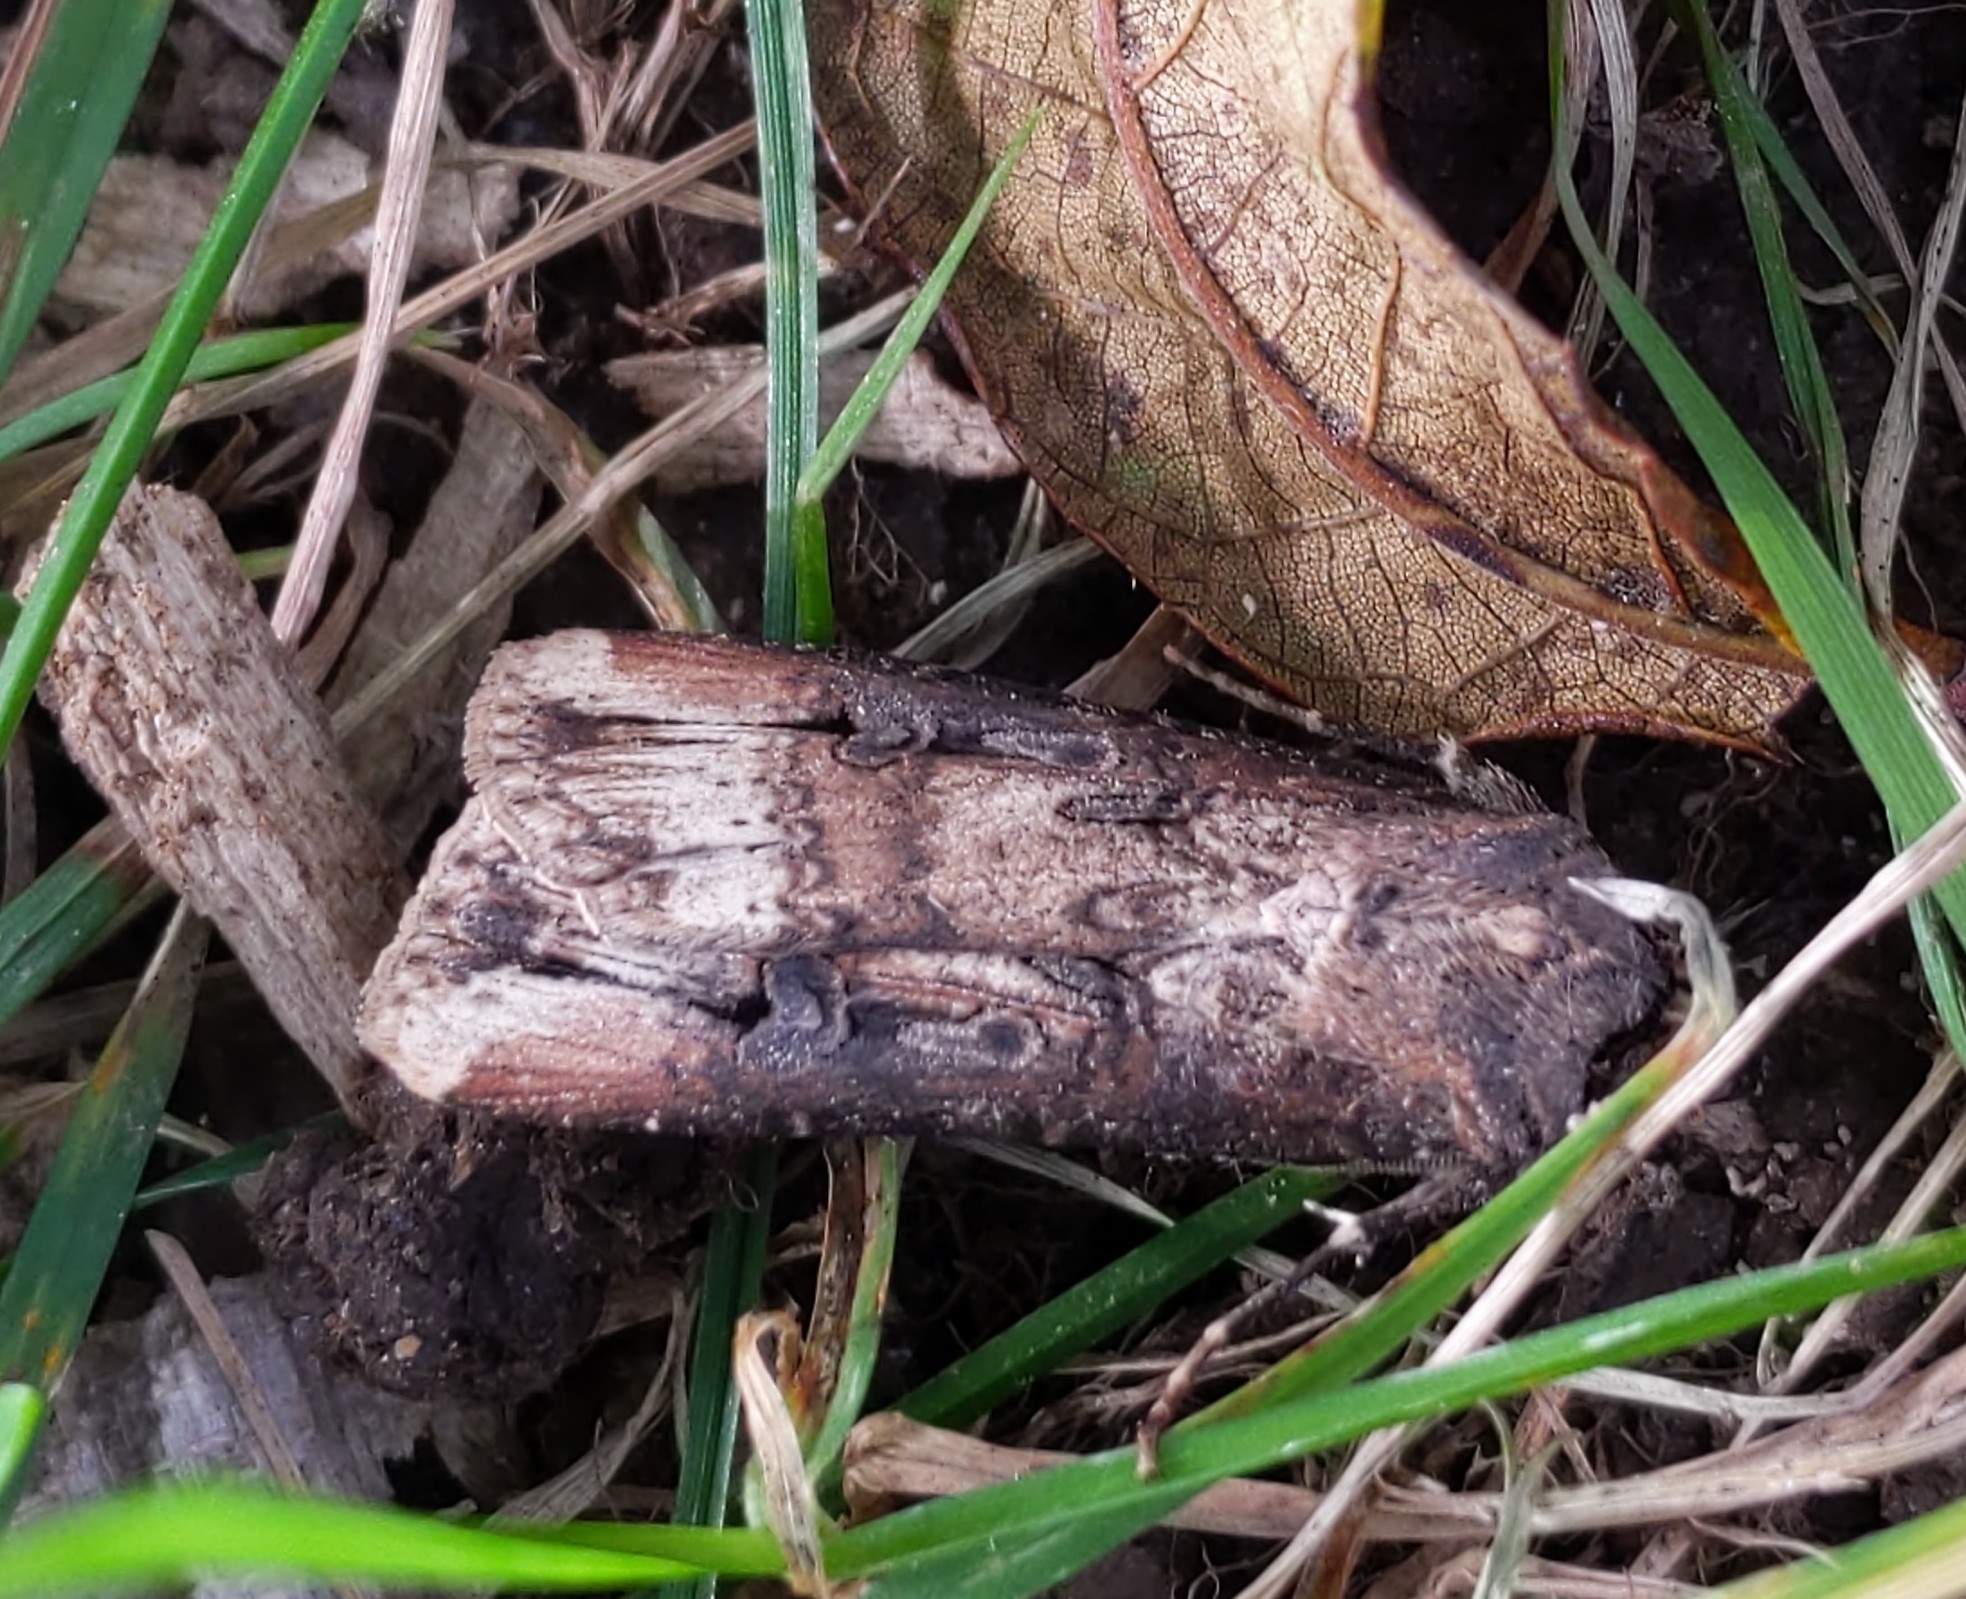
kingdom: Animalia
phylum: Arthropoda
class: Insecta
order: Lepidoptera
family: Noctuidae
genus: Agrotis
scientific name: Agrotis ipsilon
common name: Dark sword-grass
